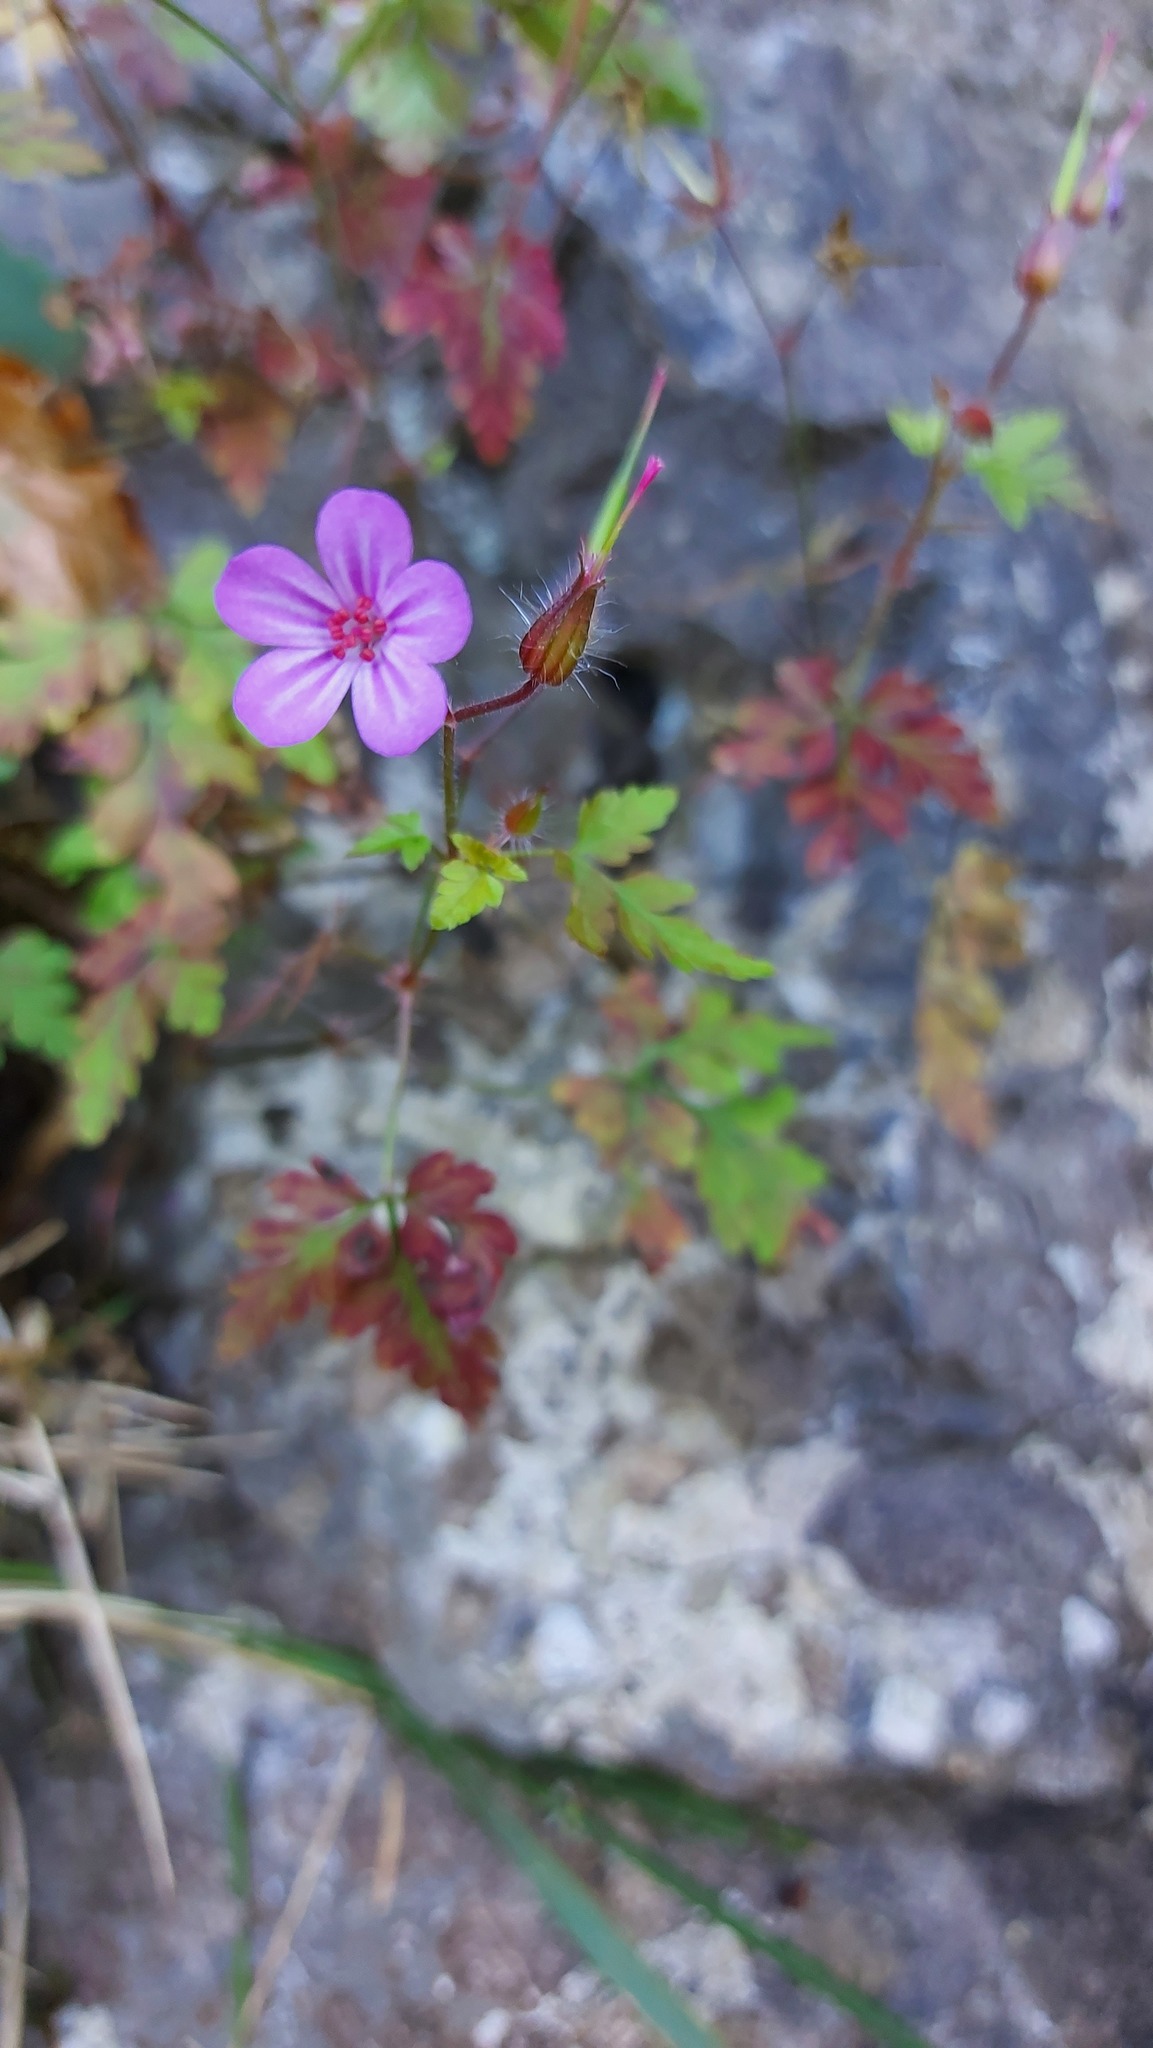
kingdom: Plantae
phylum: Tracheophyta
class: Magnoliopsida
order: Geraniales
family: Geraniaceae
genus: Geranium
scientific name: Geranium robertianum
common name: Herb-robert
